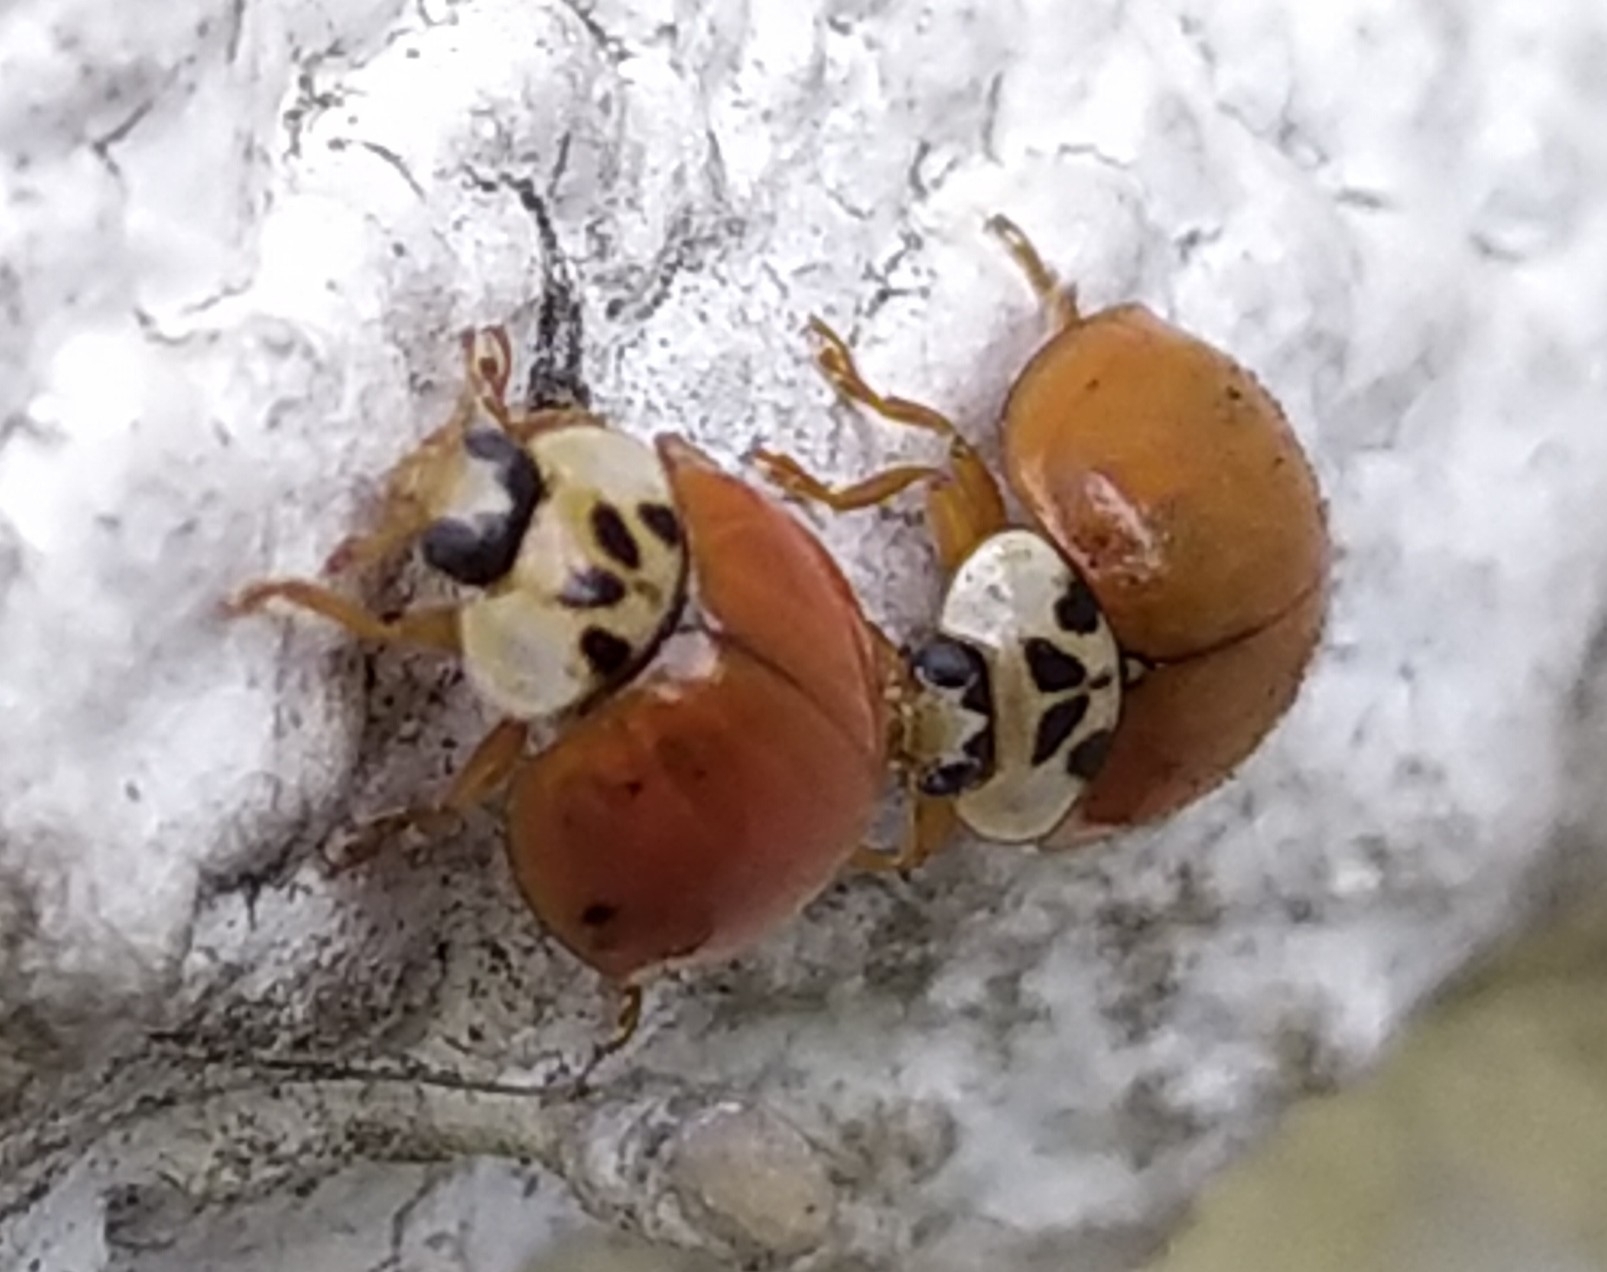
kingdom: Animalia
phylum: Arthropoda
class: Insecta
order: Coleoptera
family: Coccinellidae
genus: Harmonia
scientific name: Harmonia axyridis
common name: Harlequin ladybird
